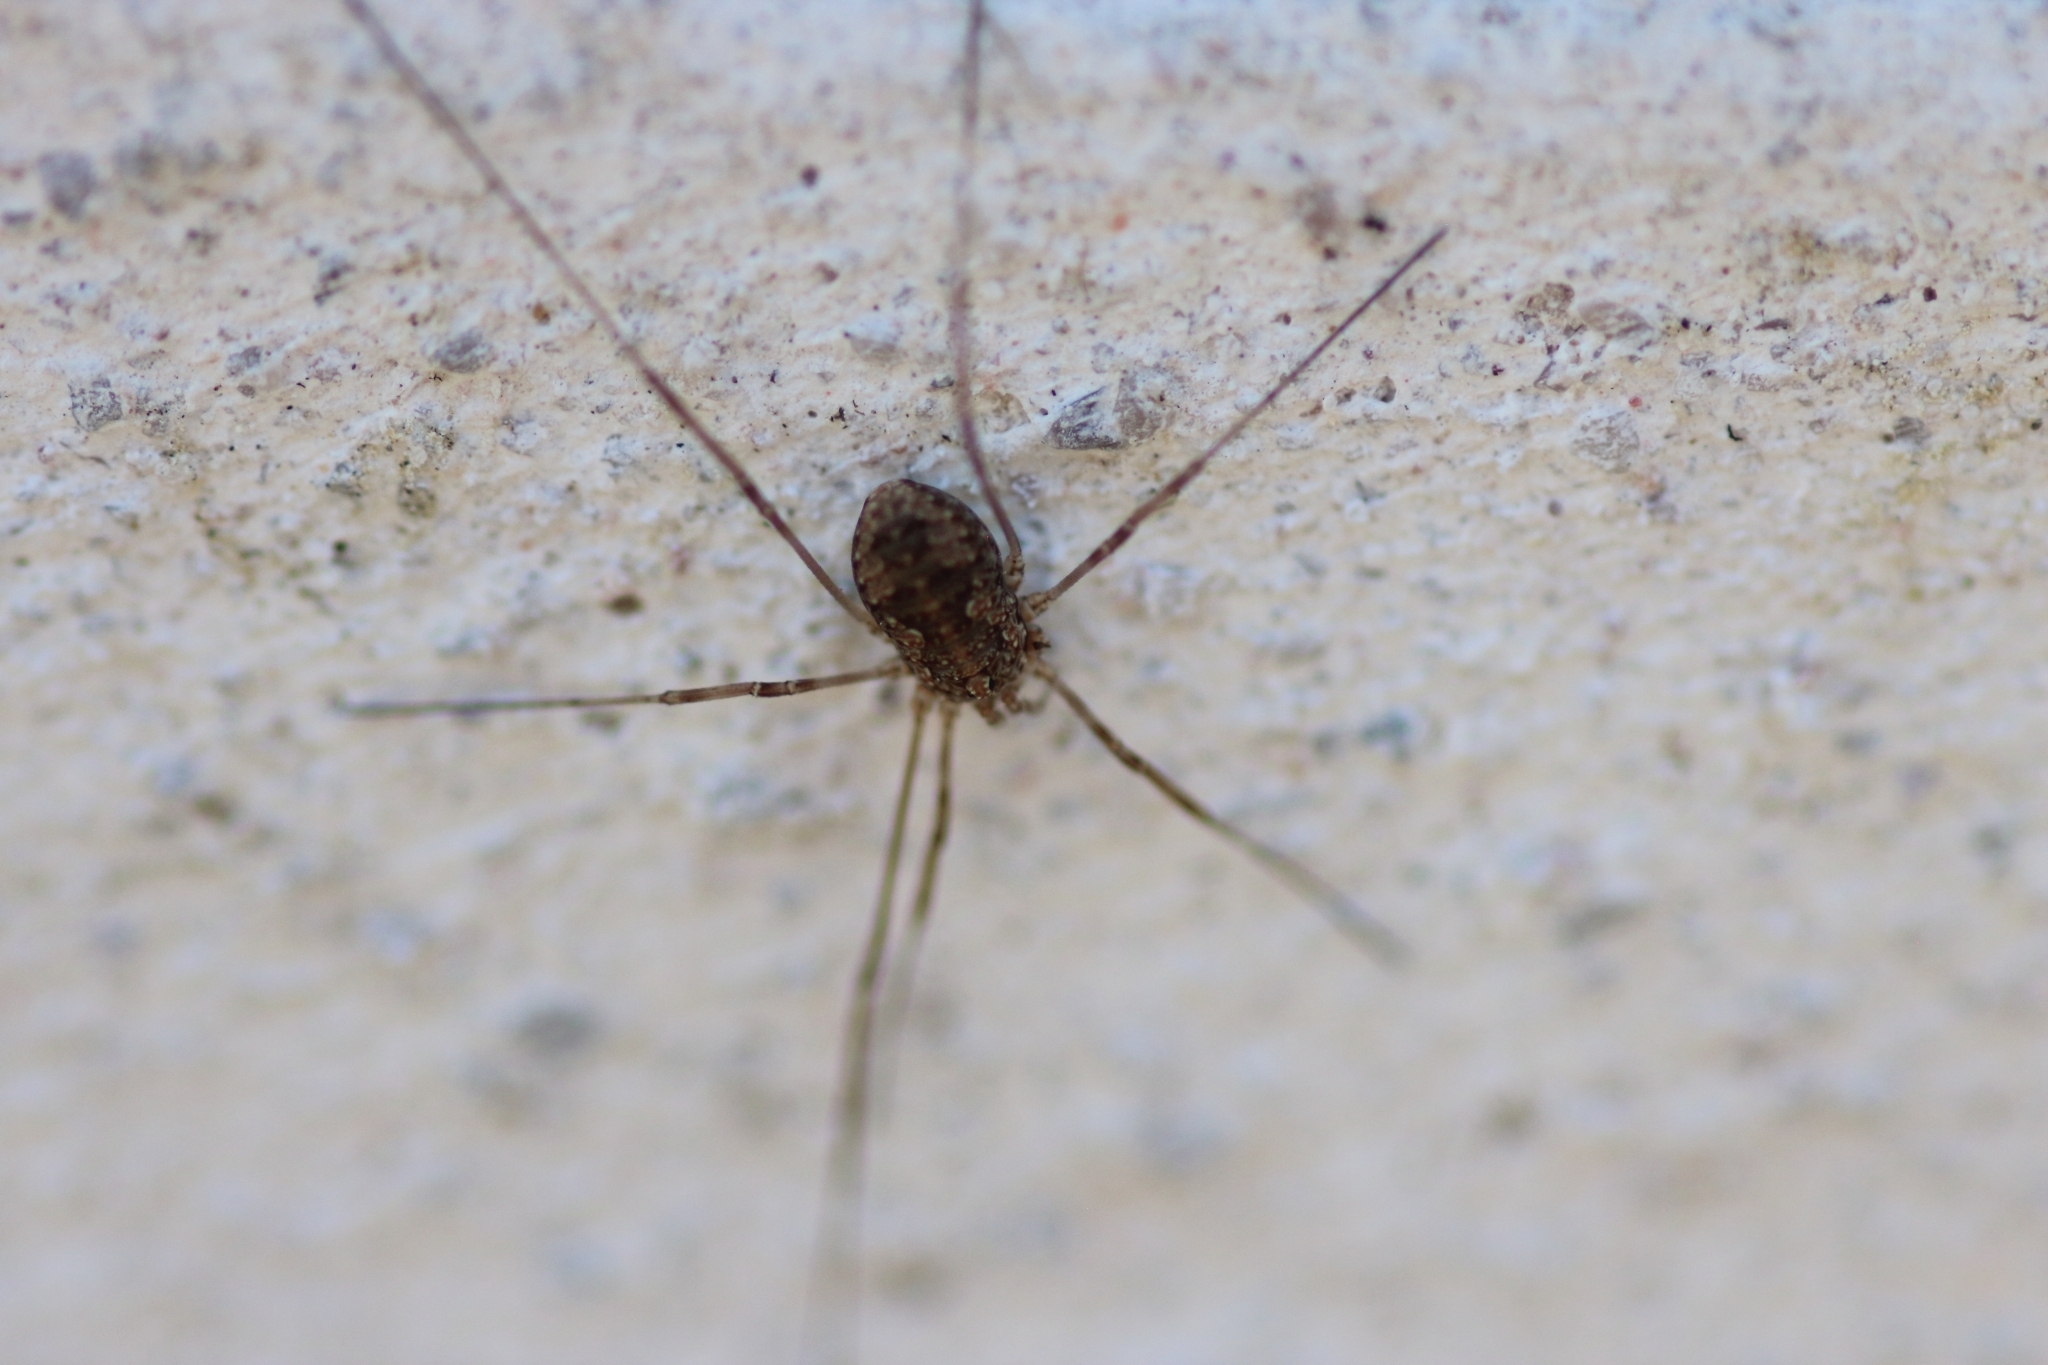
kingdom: Animalia
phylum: Arthropoda
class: Arachnida
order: Opiliones
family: Phalangiidae
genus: Phalangium
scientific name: Phalangium opilio
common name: Daddy longleg
